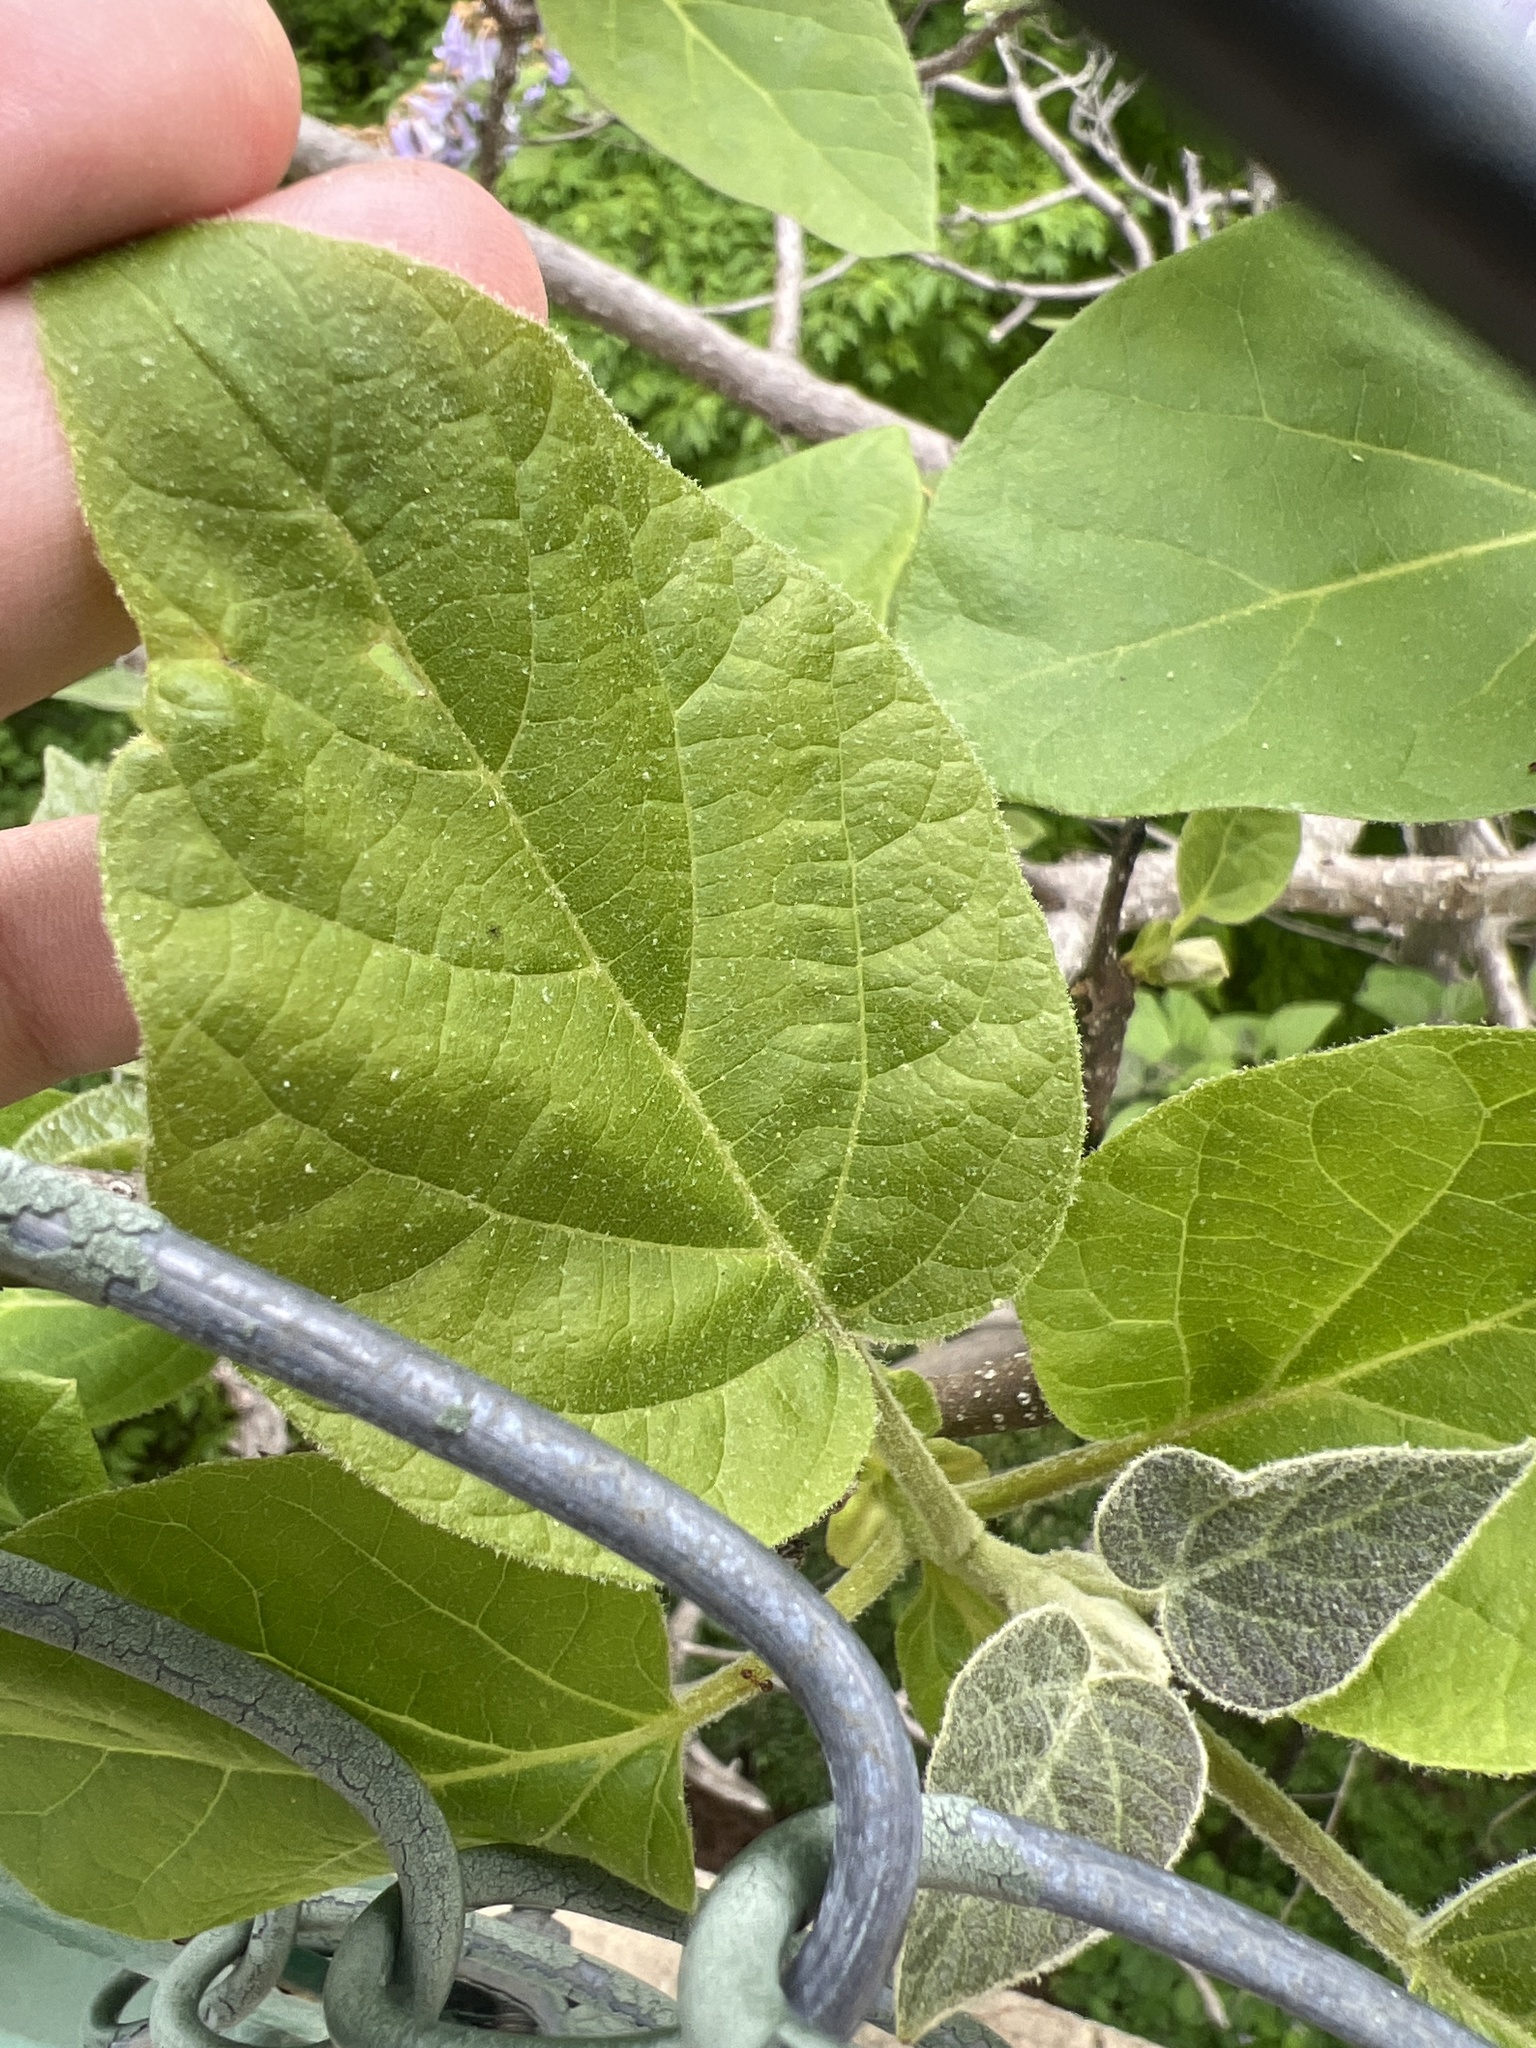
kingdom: Plantae
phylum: Tracheophyta
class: Magnoliopsida
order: Lamiales
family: Paulowniaceae
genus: Paulownia
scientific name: Paulownia tomentosa
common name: Foxglove-tree
